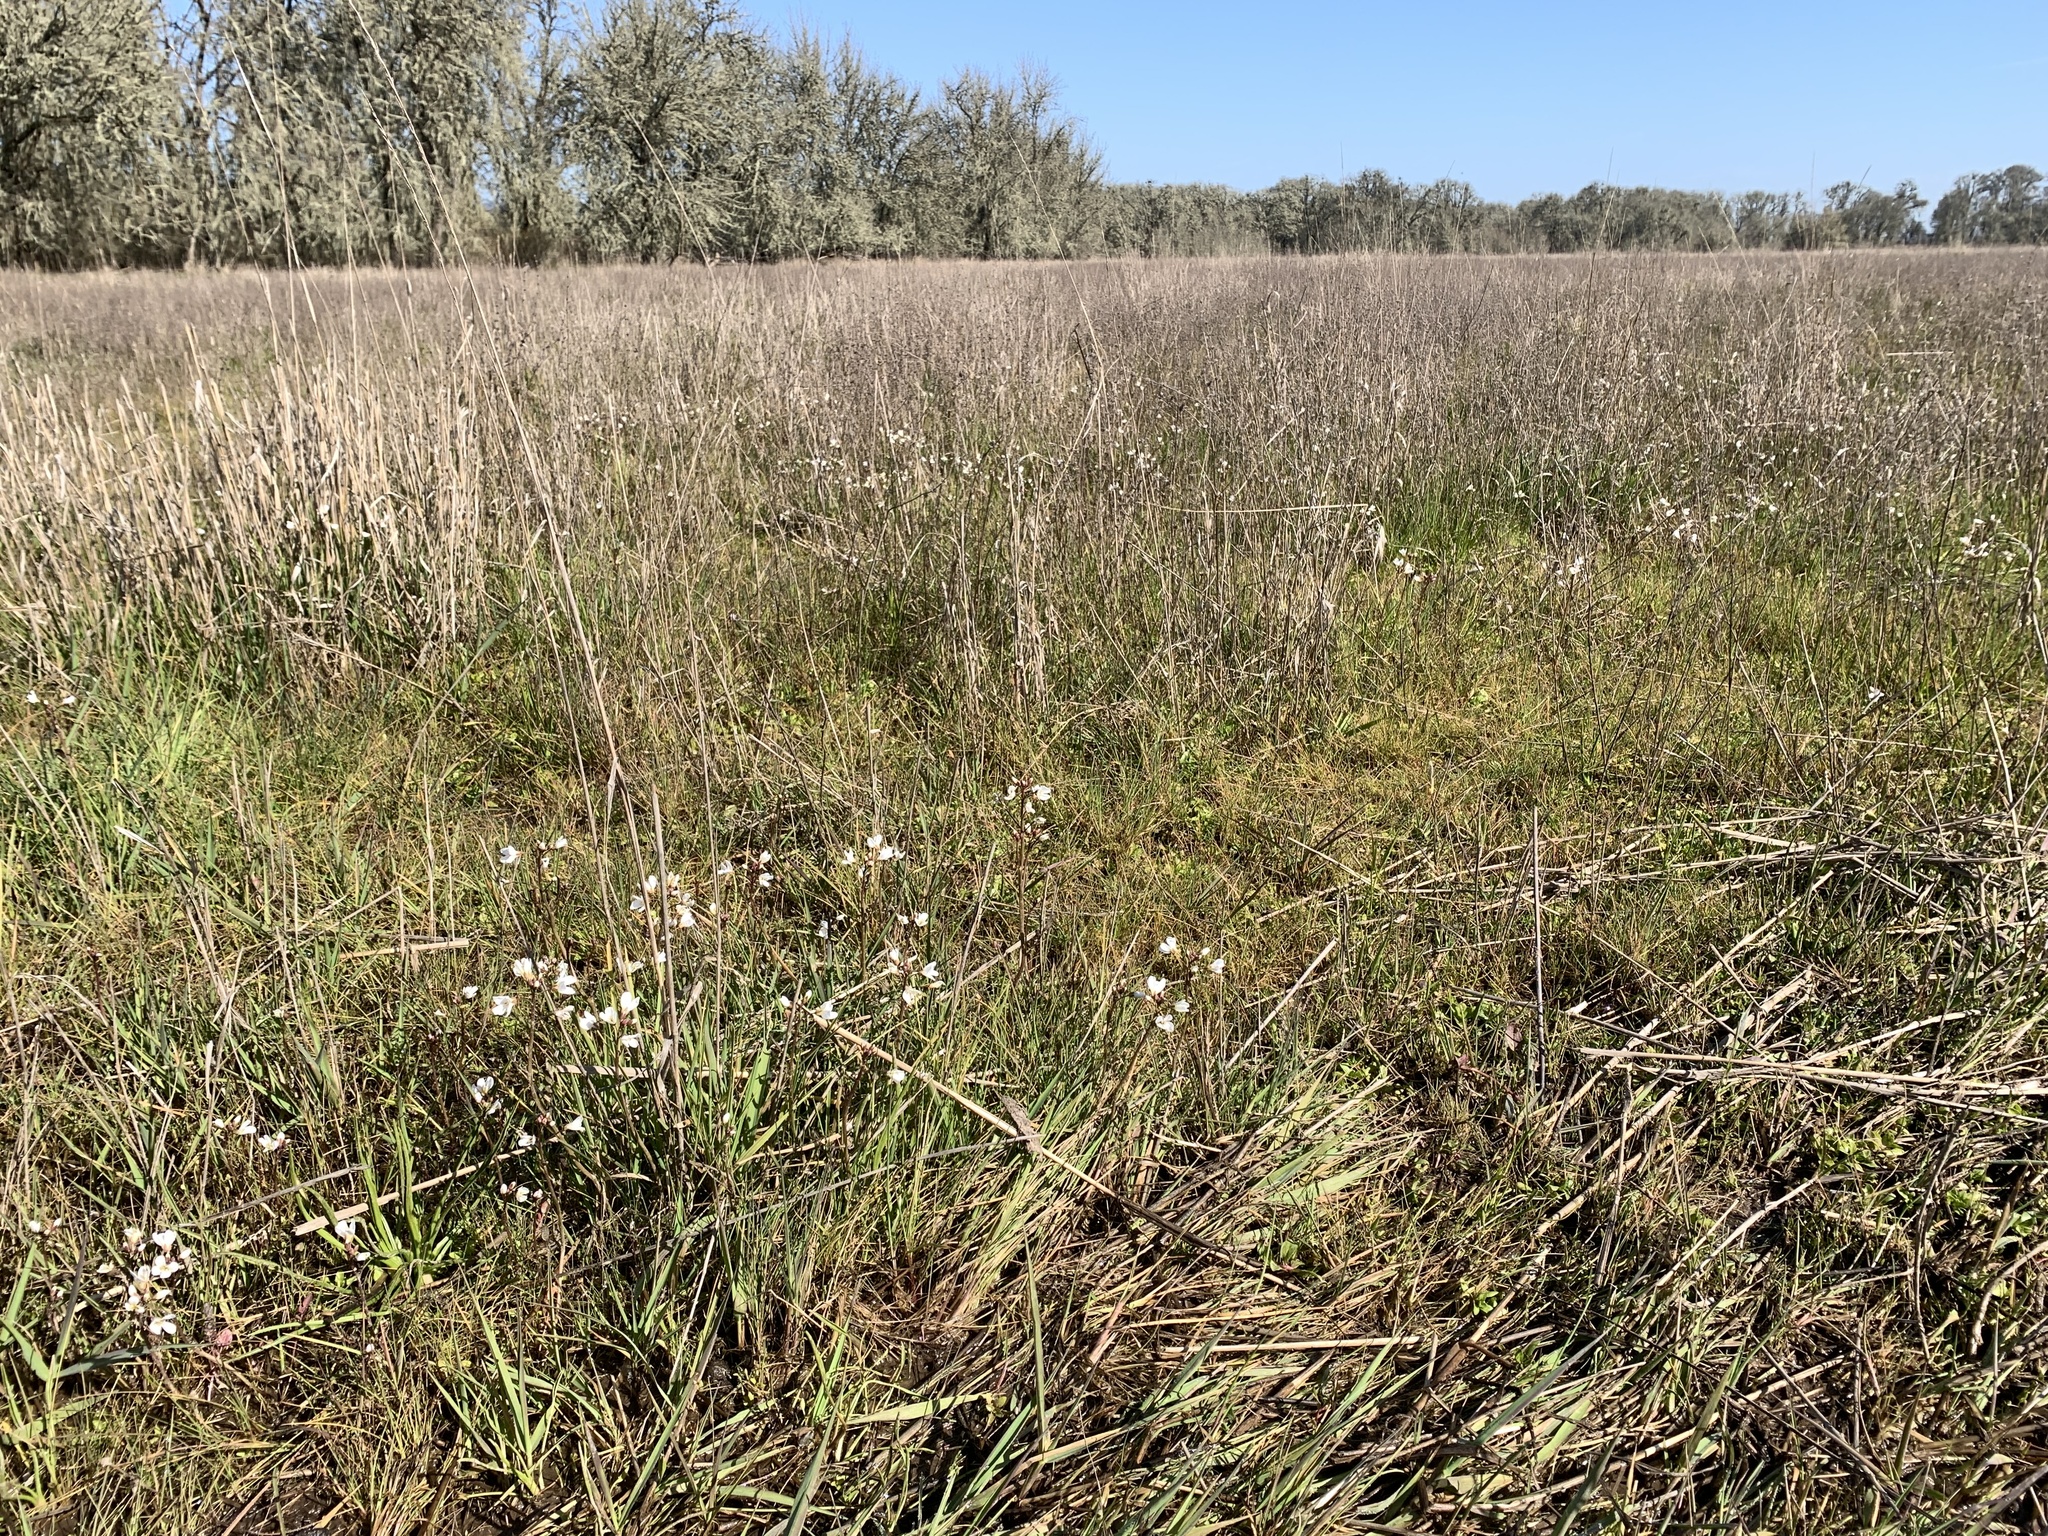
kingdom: Plantae
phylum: Tracheophyta
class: Magnoliopsida
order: Brassicales
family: Brassicaceae
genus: Cardamine
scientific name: Cardamine penduliflora
